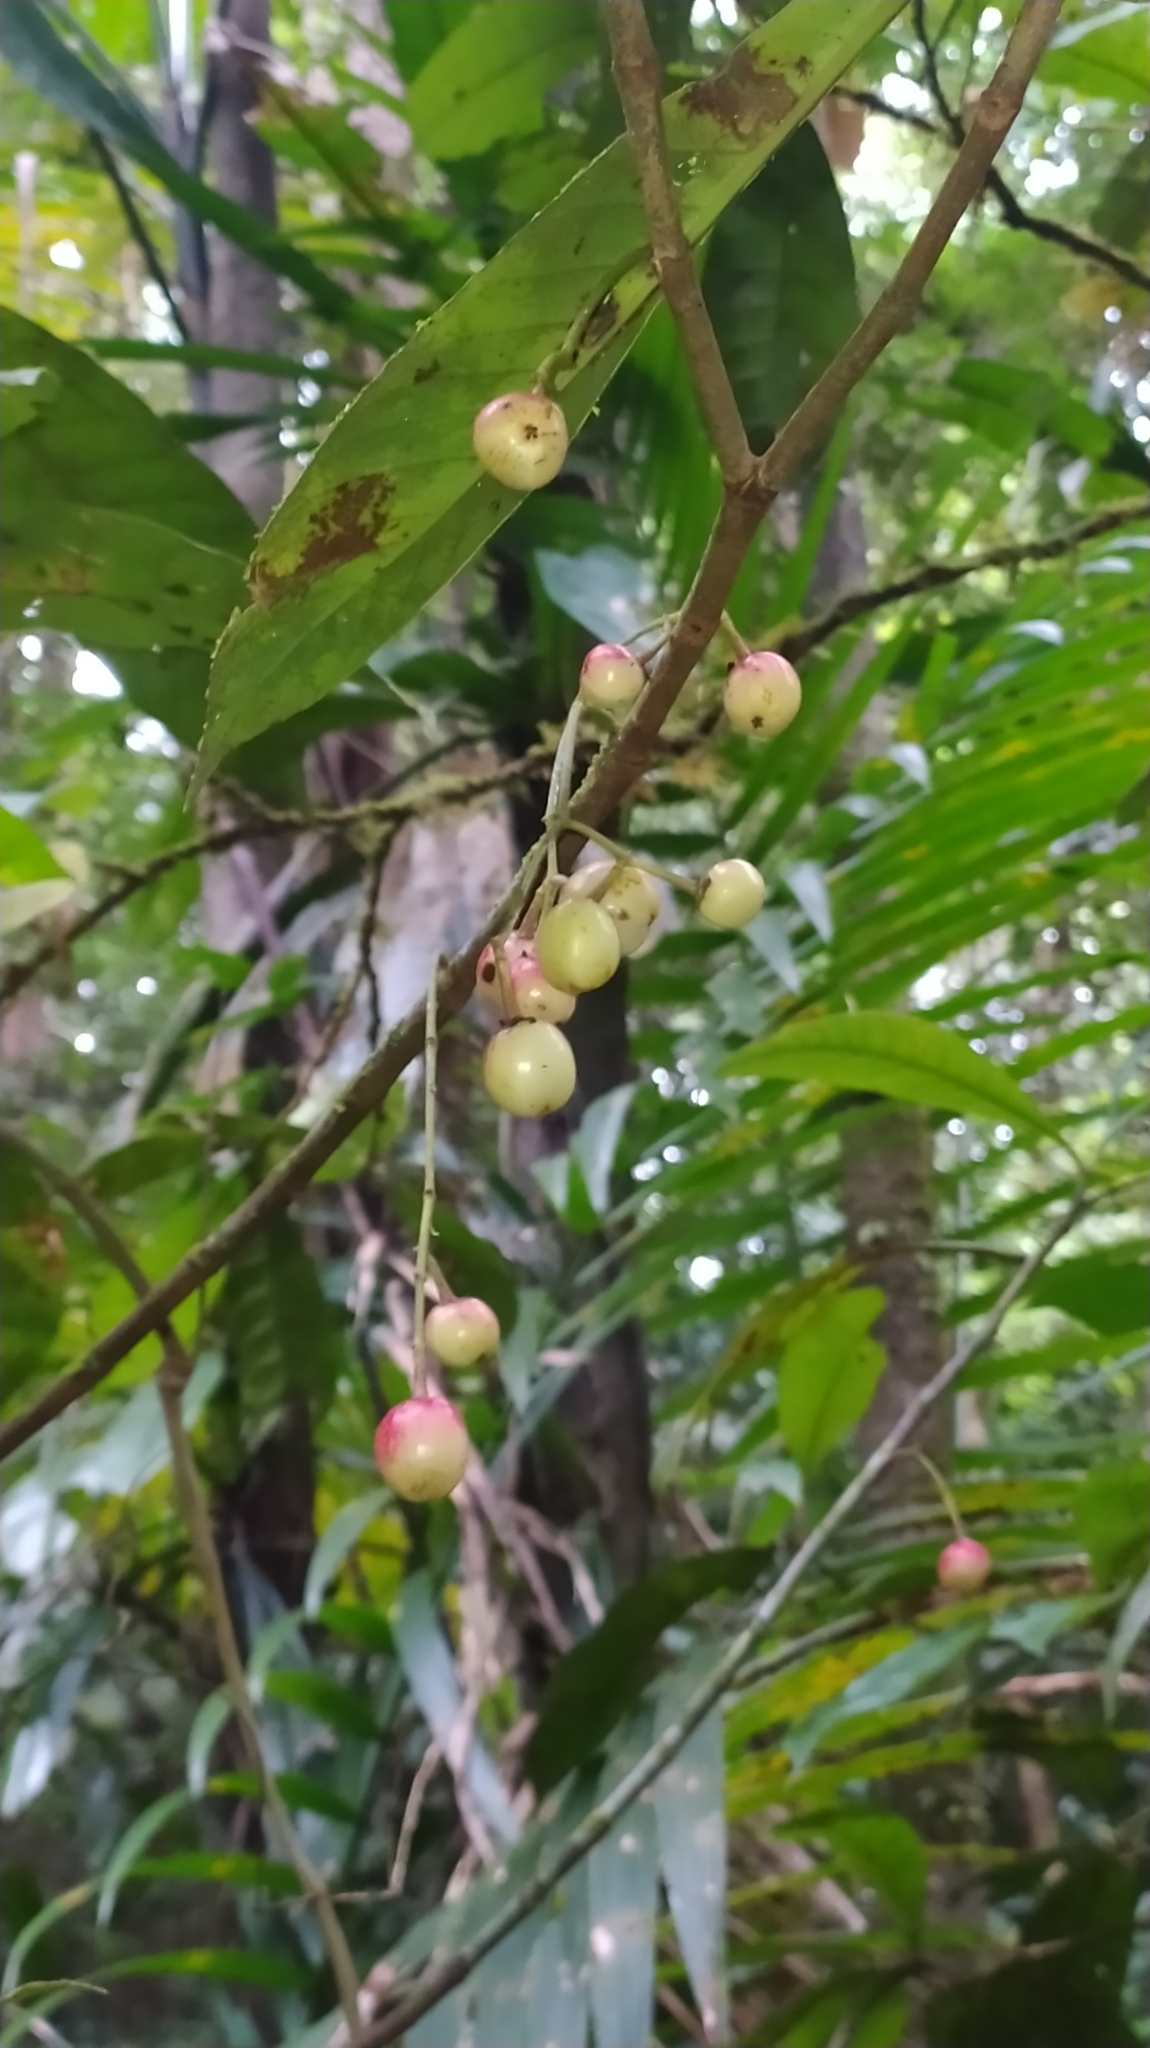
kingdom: Plantae
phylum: Tracheophyta
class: Magnoliopsida
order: Malpighiales
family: Clusiaceae
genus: Chrysochlamys
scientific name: Chrysochlamys membranacea
